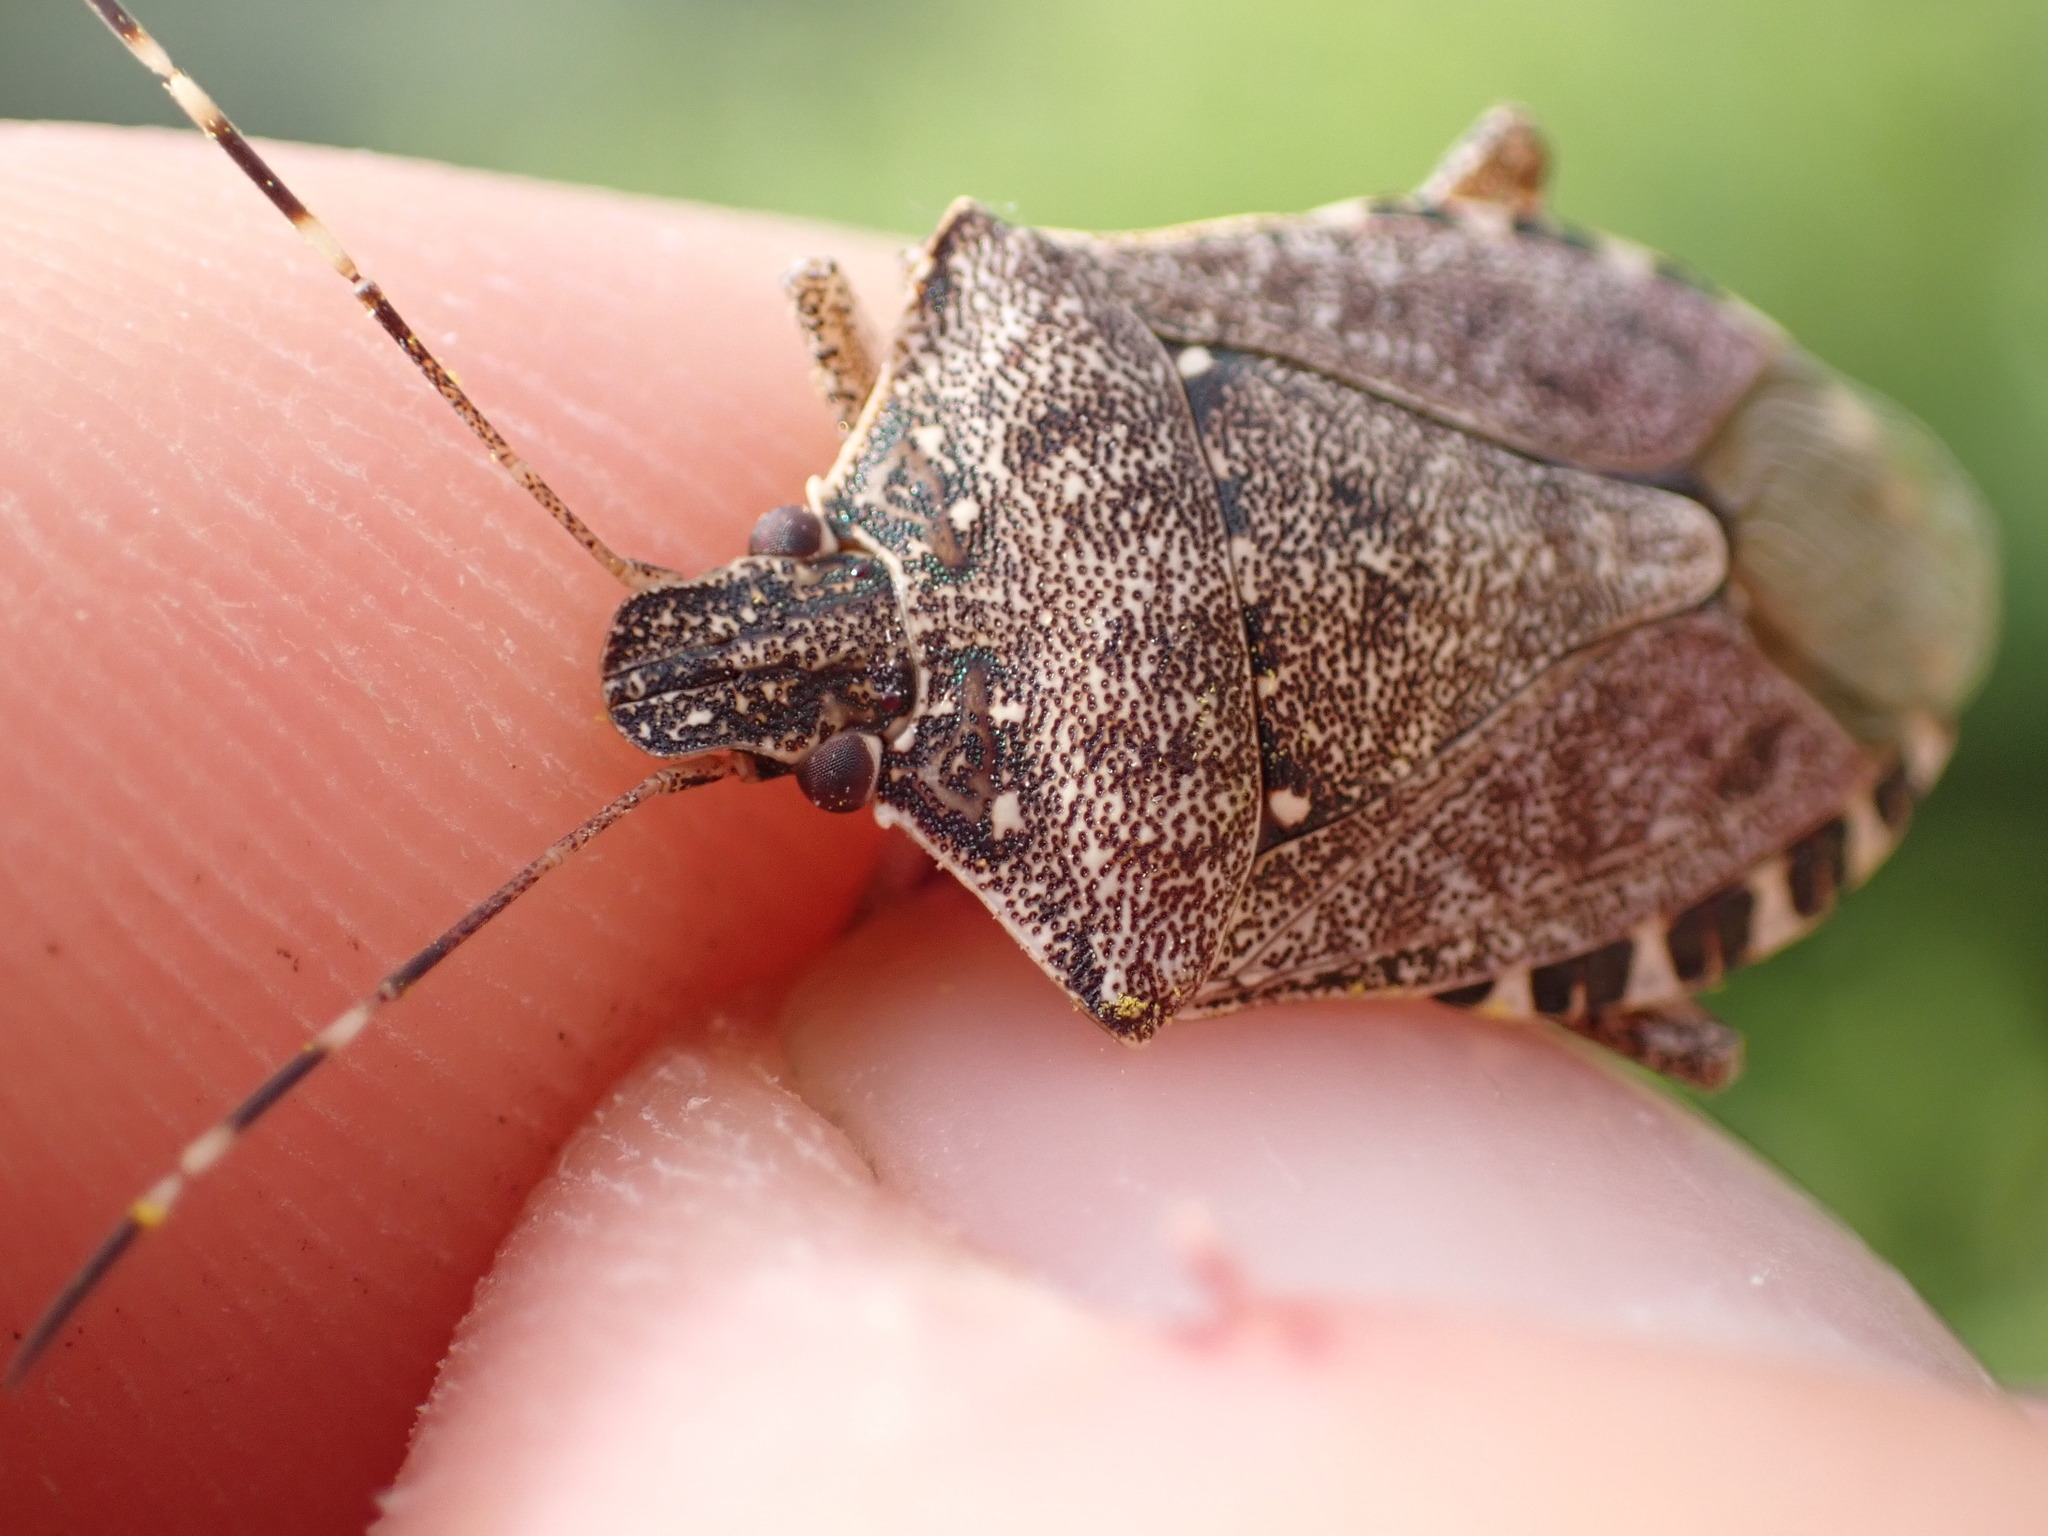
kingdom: Animalia
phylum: Arthropoda
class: Insecta
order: Hemiptera
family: Pentatomidae
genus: Halyomorpha
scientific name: Halyomorpha halys
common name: Brown marmorated stink bug
